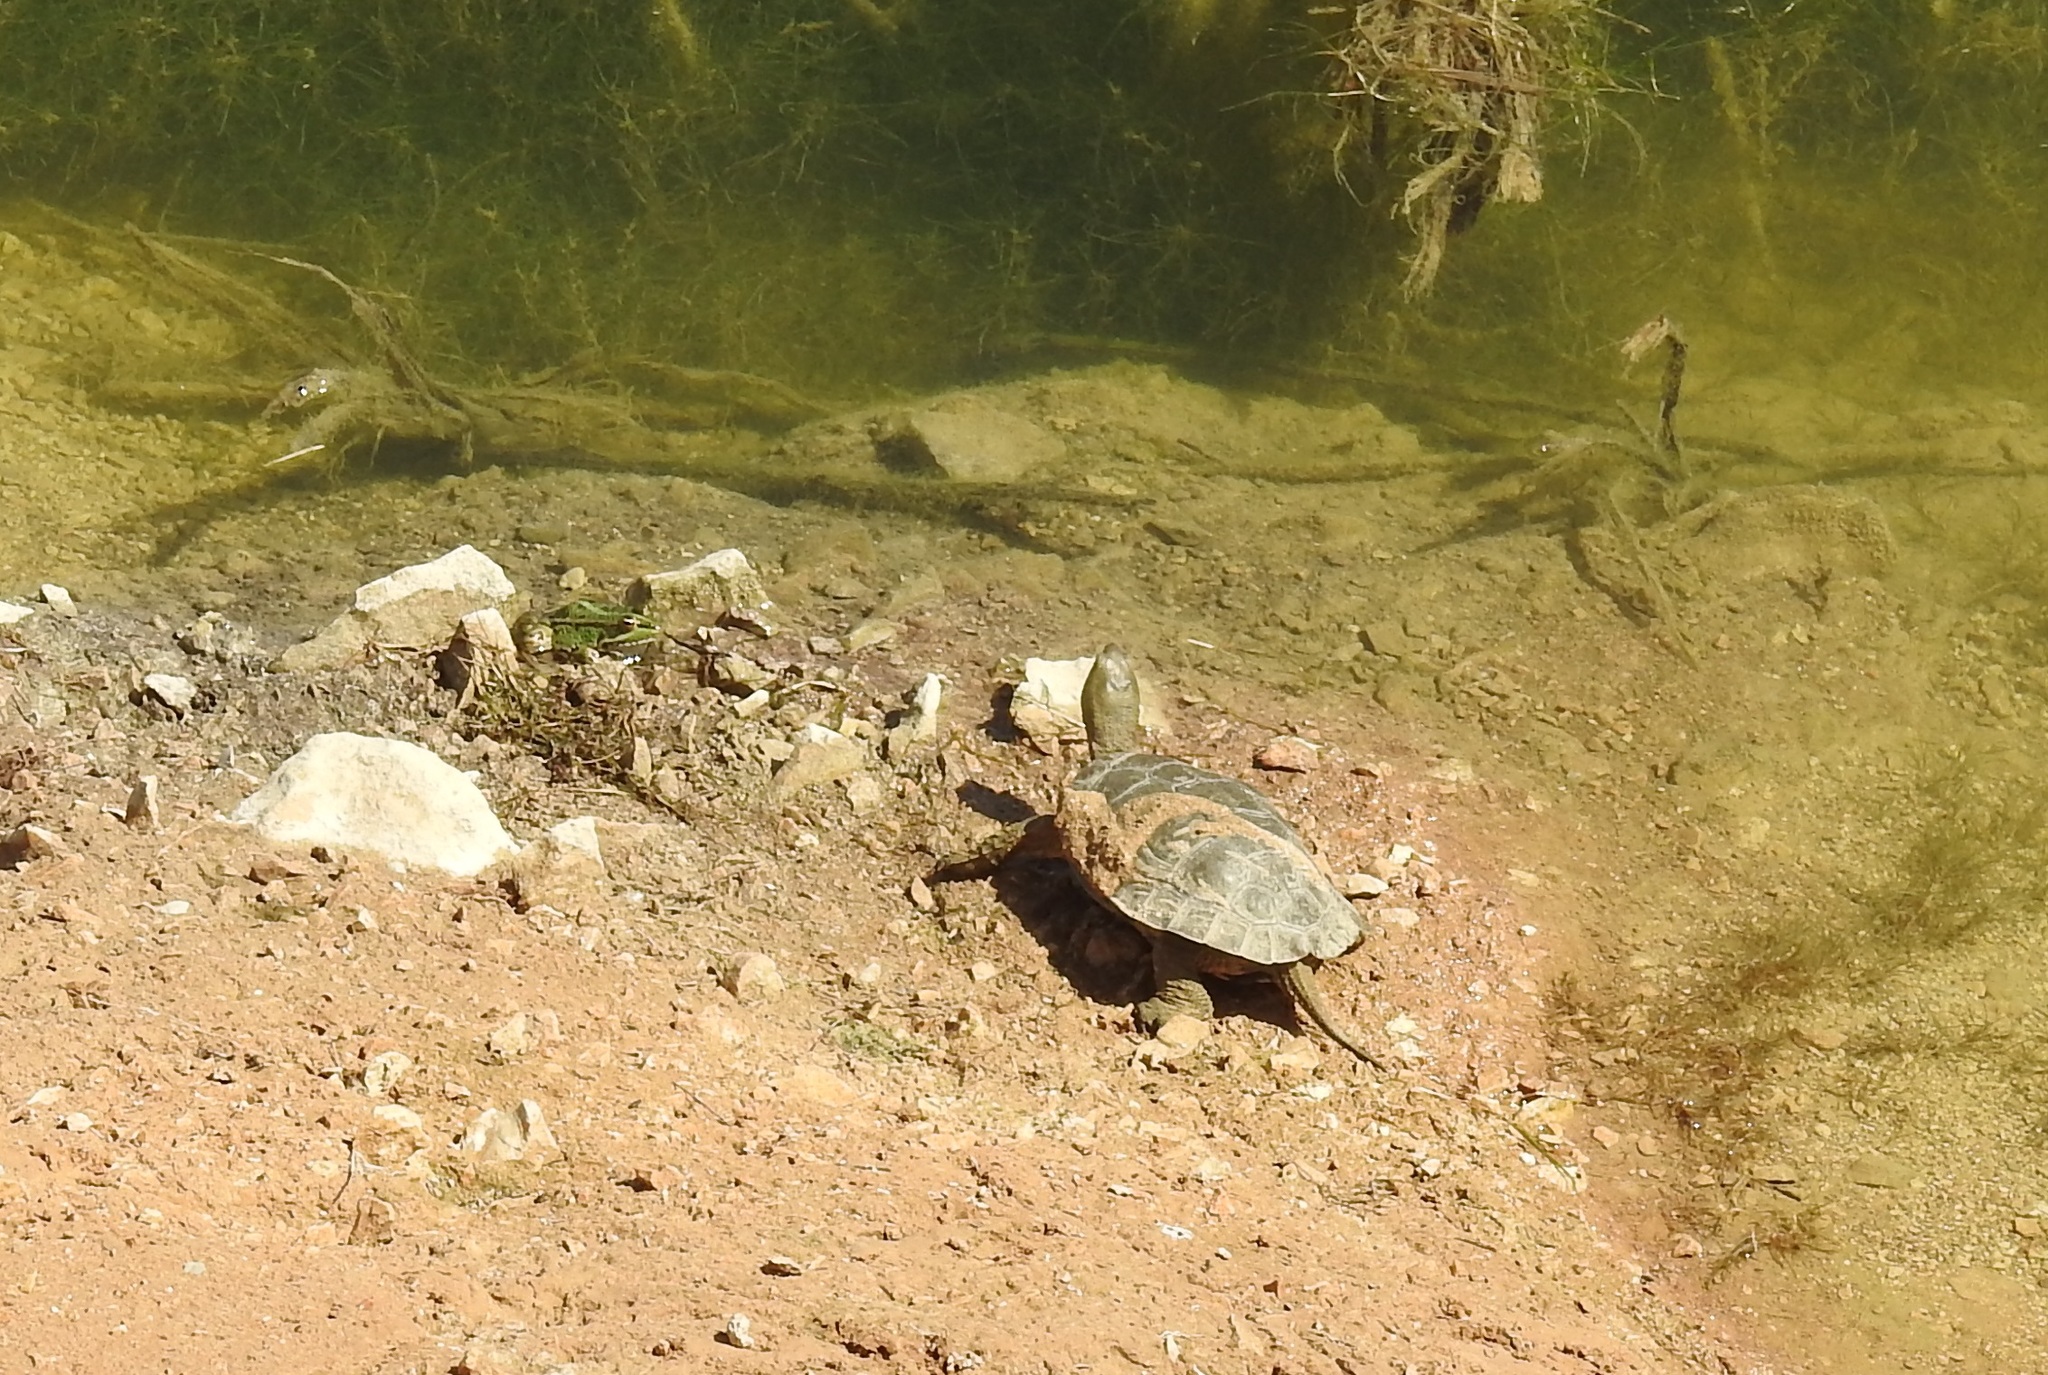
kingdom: Animalia
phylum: Chordata
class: Testudines
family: Geoemydidae
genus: Mauremys
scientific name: Mauremys leprosa
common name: Mediterranean pond turtle
